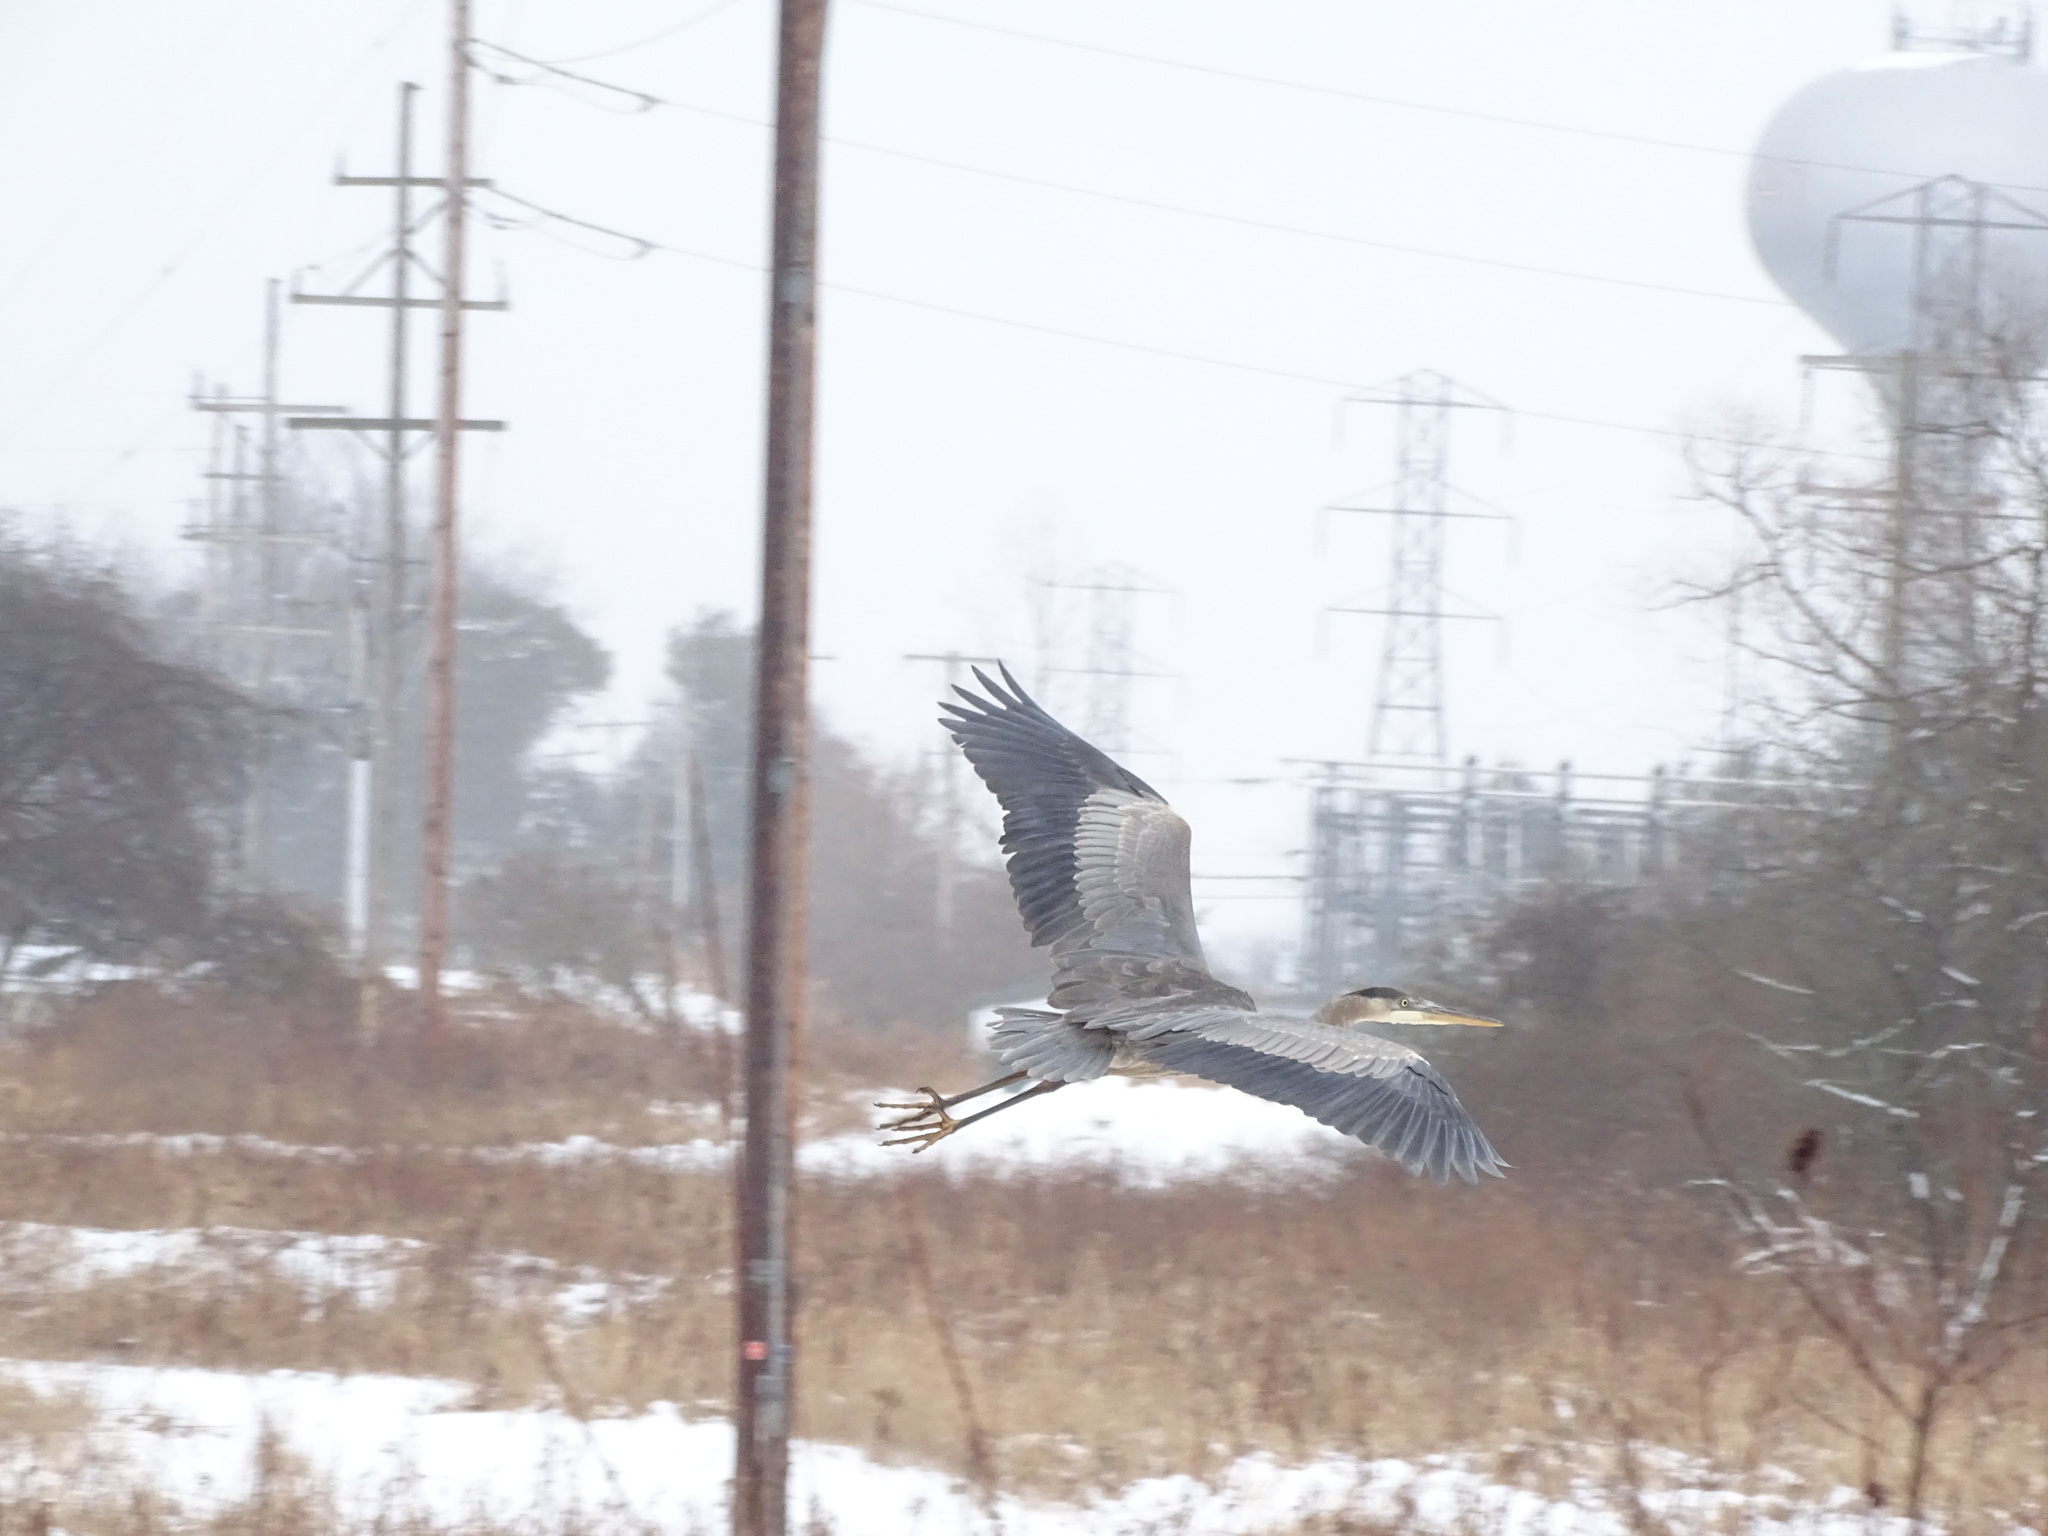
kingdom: Animalia
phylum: Chordata
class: Aves
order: Pelecaniformes
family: Ardeidae
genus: Ardea
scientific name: Ardea herodias
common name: Great blue heron
